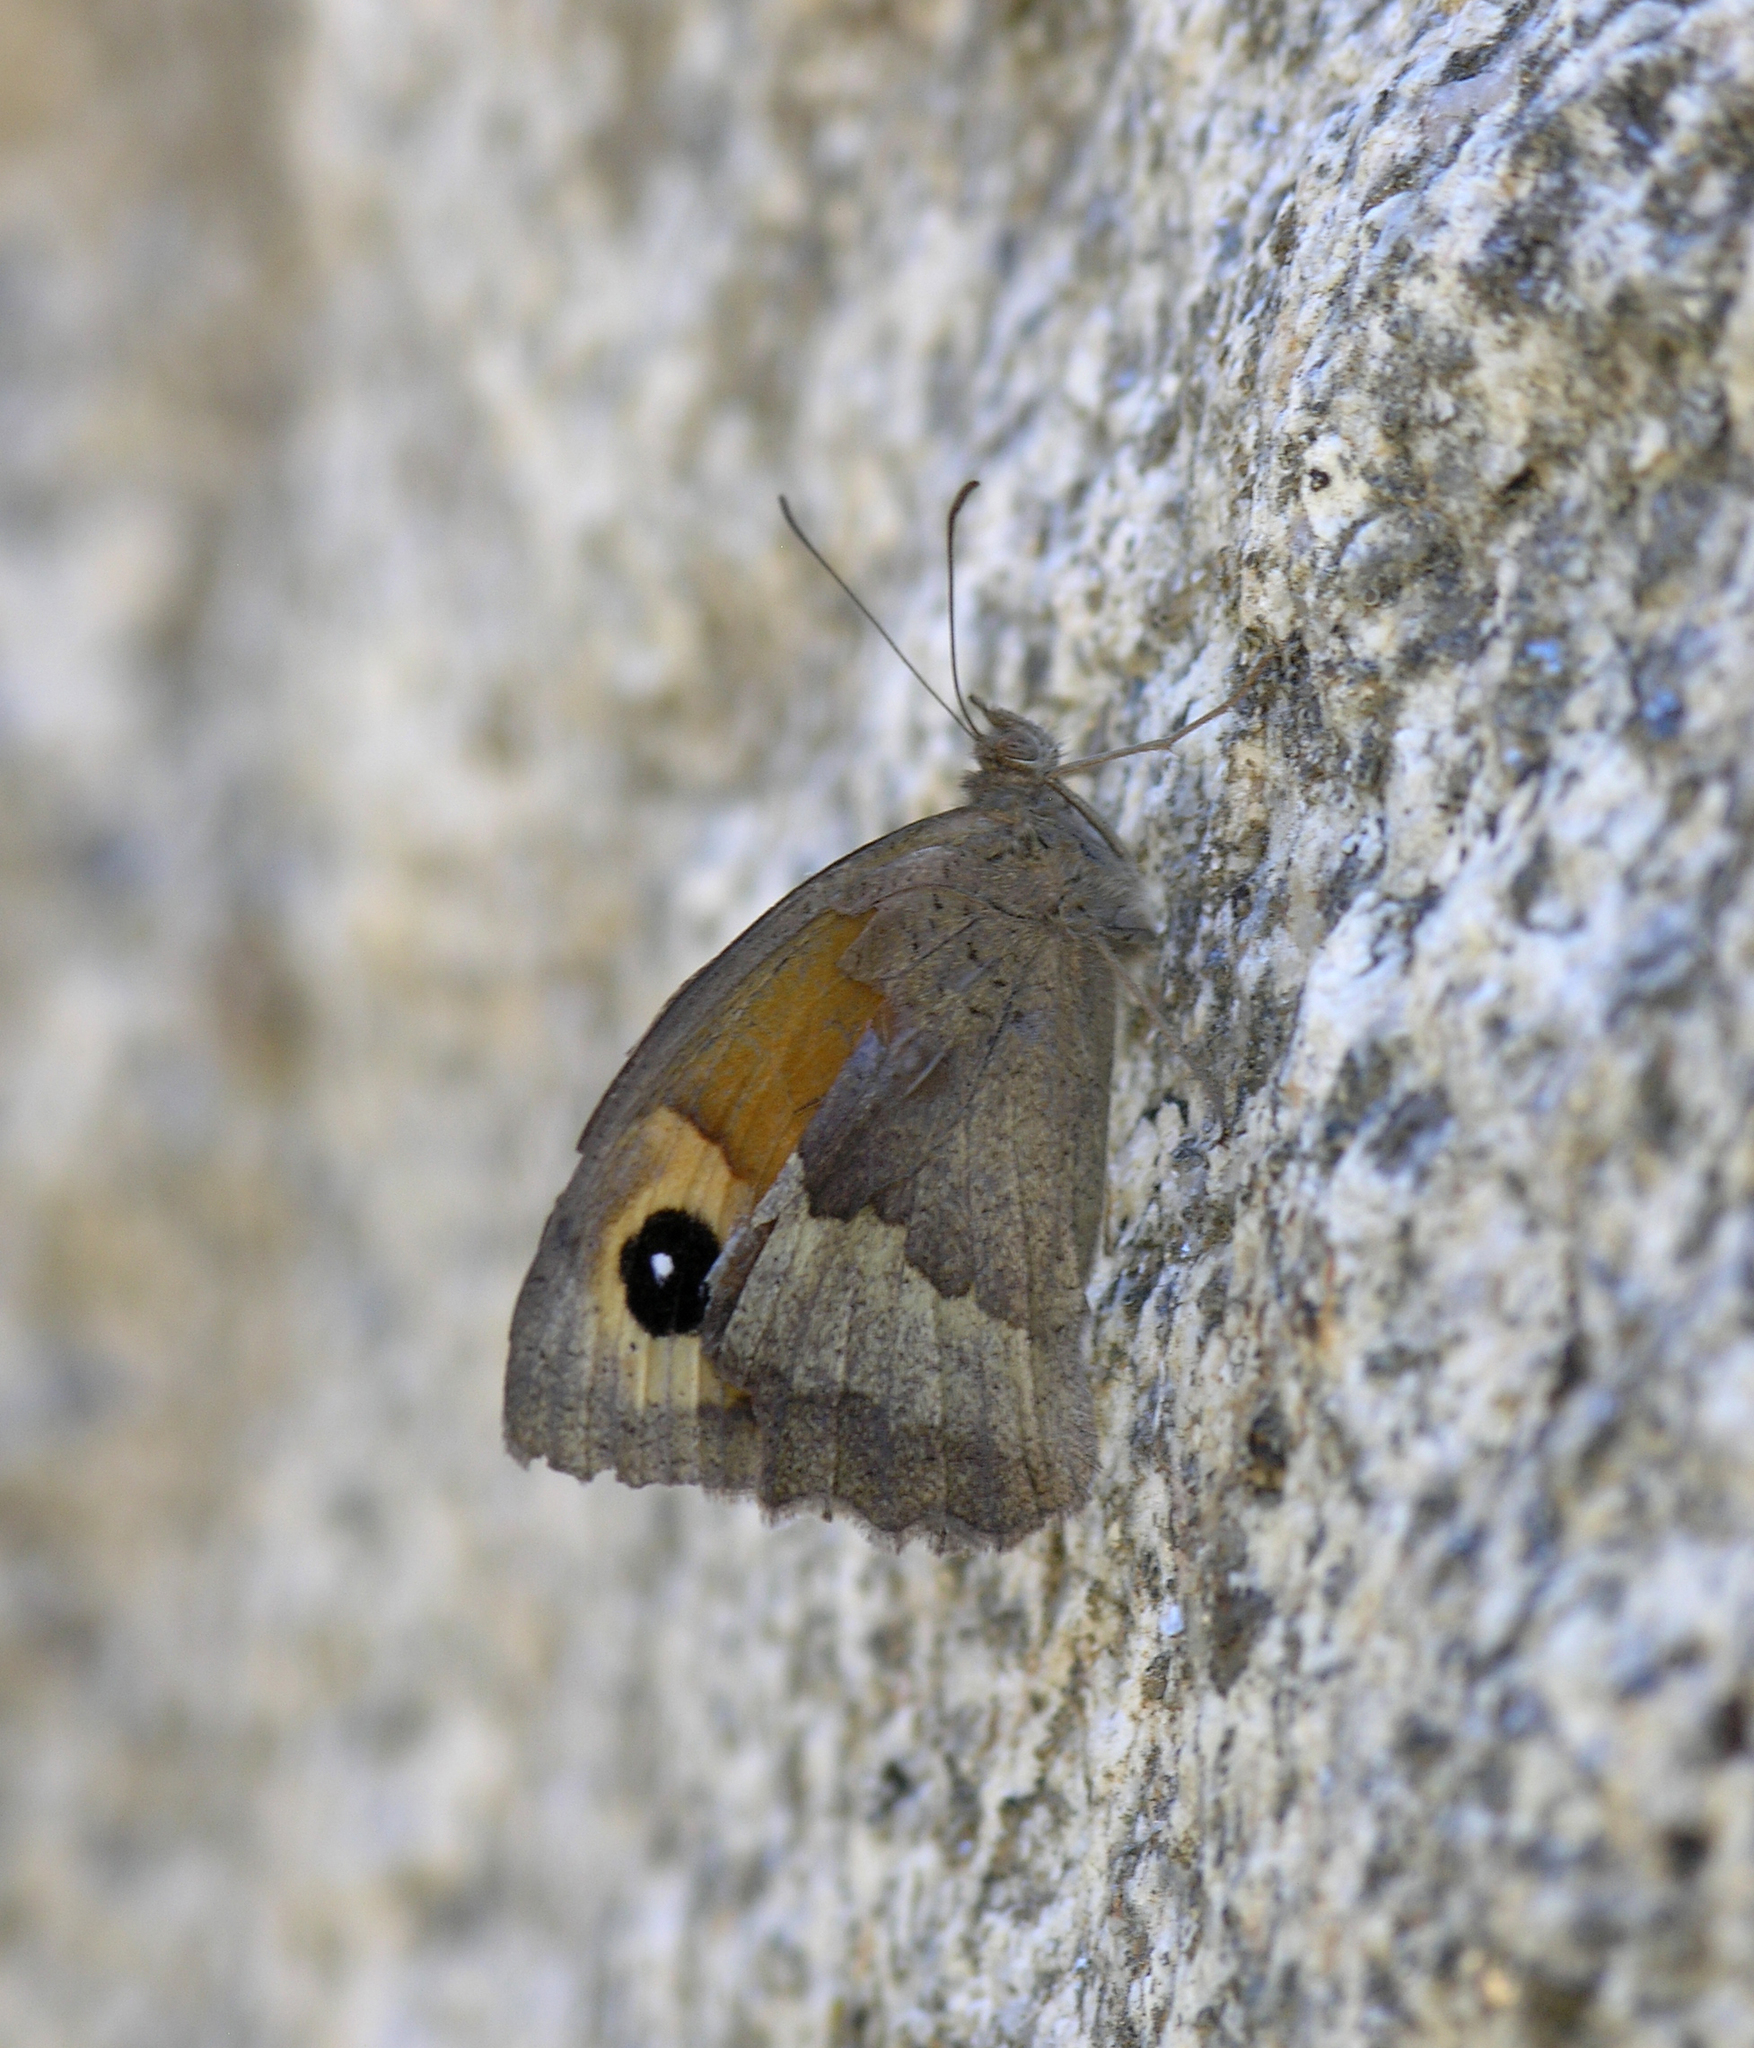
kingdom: Animalia
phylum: Arthropoda
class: Insecta
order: Lepidoptera
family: Nymphalidae
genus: Maniola
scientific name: Maniola jurtina
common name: Meadow brown
